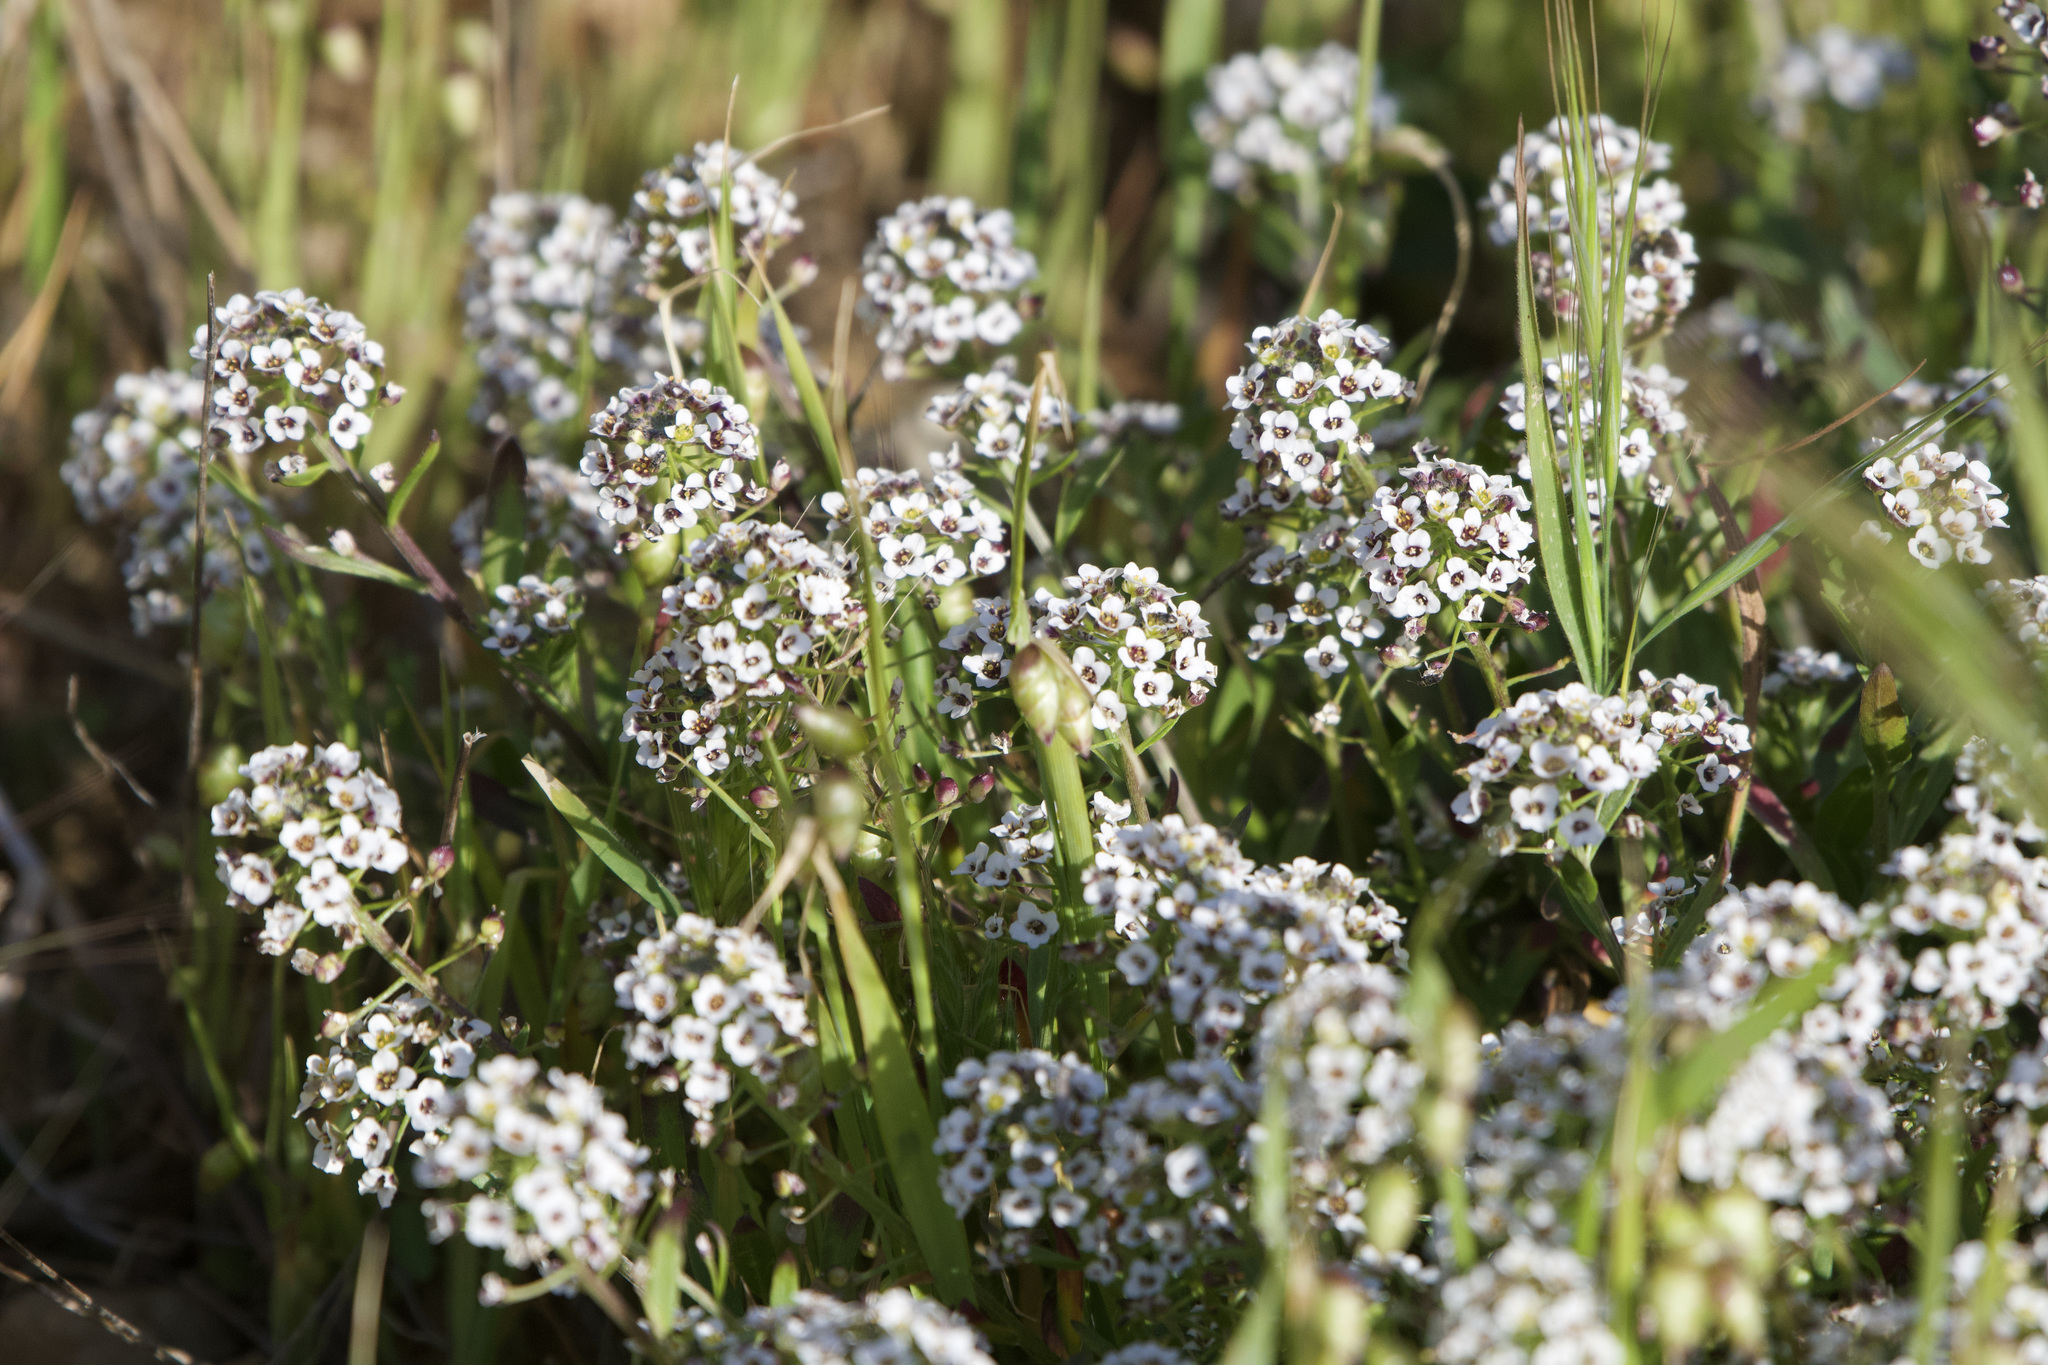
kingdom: Plantae
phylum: Tracheophyta
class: Magnoliopsida
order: Brassicales
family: Brassicaceae
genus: Lobularia
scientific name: Lobularia maritima
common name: Sweet alison
